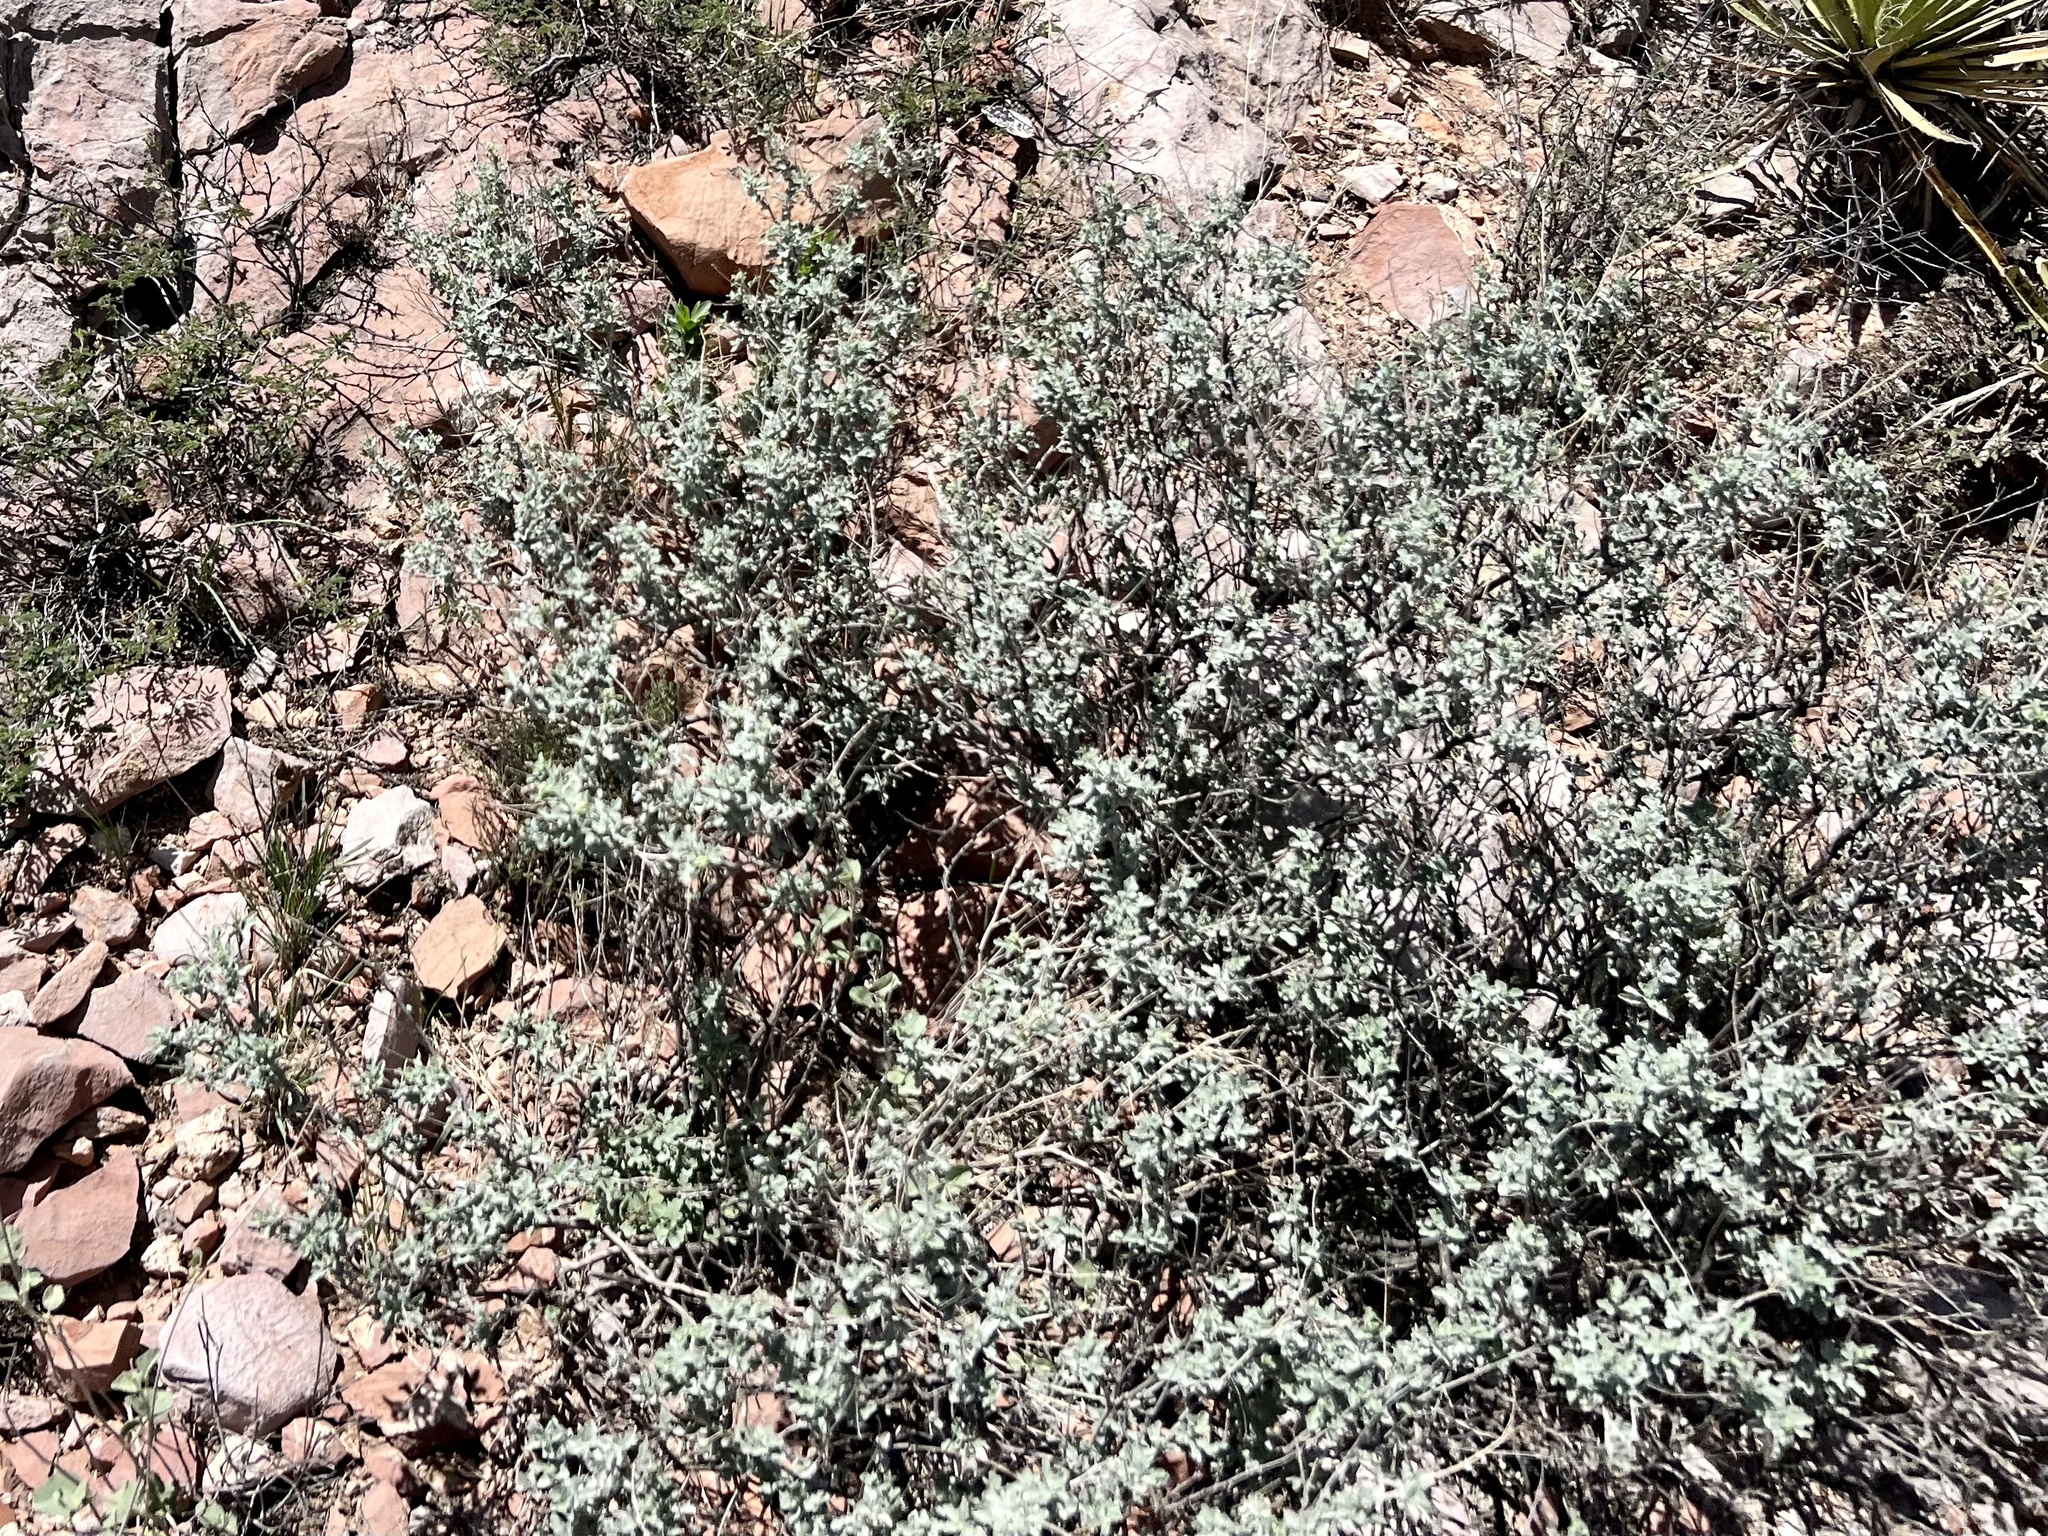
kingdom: Plantae
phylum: Tracheophyta
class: Magnoliopsida
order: Asterales
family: Asteraceae
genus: Parthenium
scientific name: Parthenium incanum
